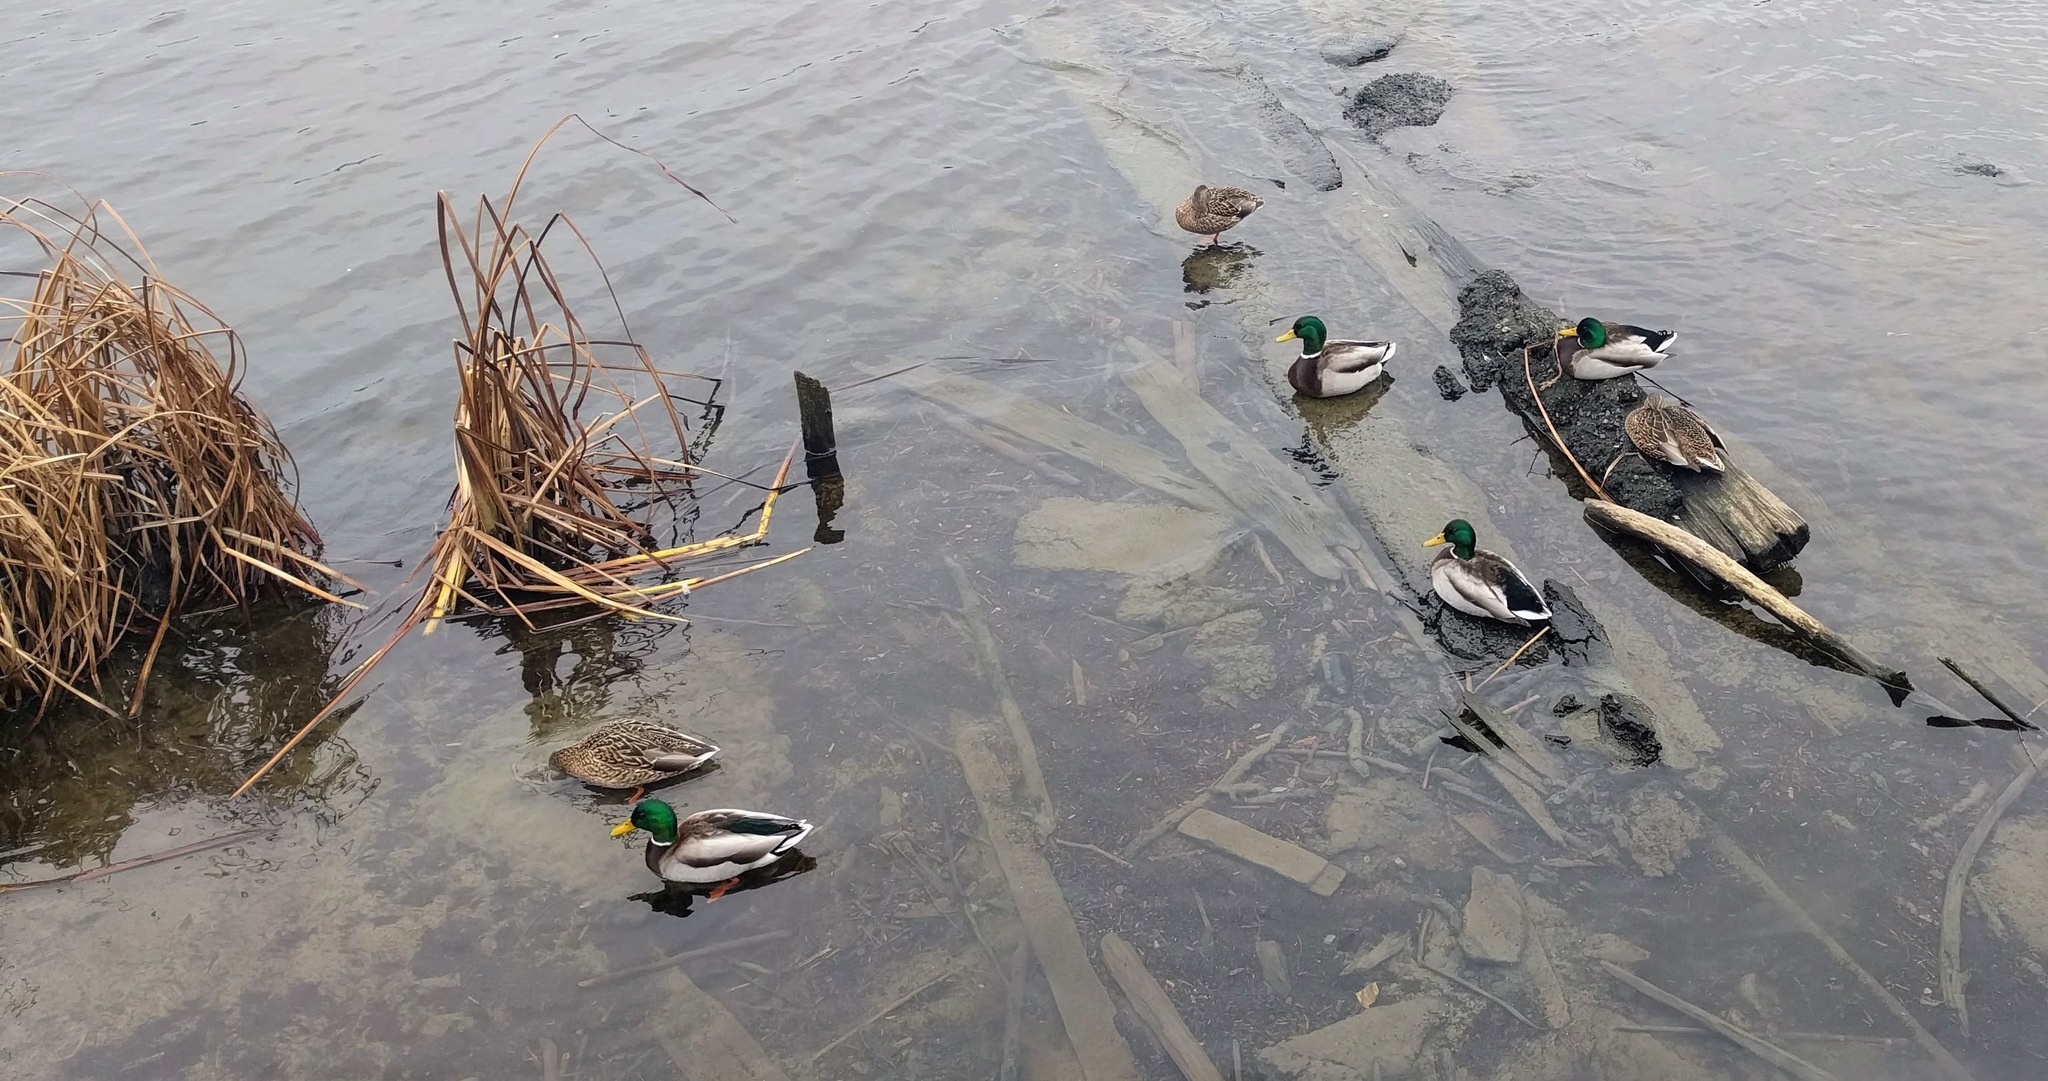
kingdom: Animalia
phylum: Chordata
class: Aves
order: Anseriformes
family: Anatidae
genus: Anas
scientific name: Anas platyrhynchos
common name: Mallard
